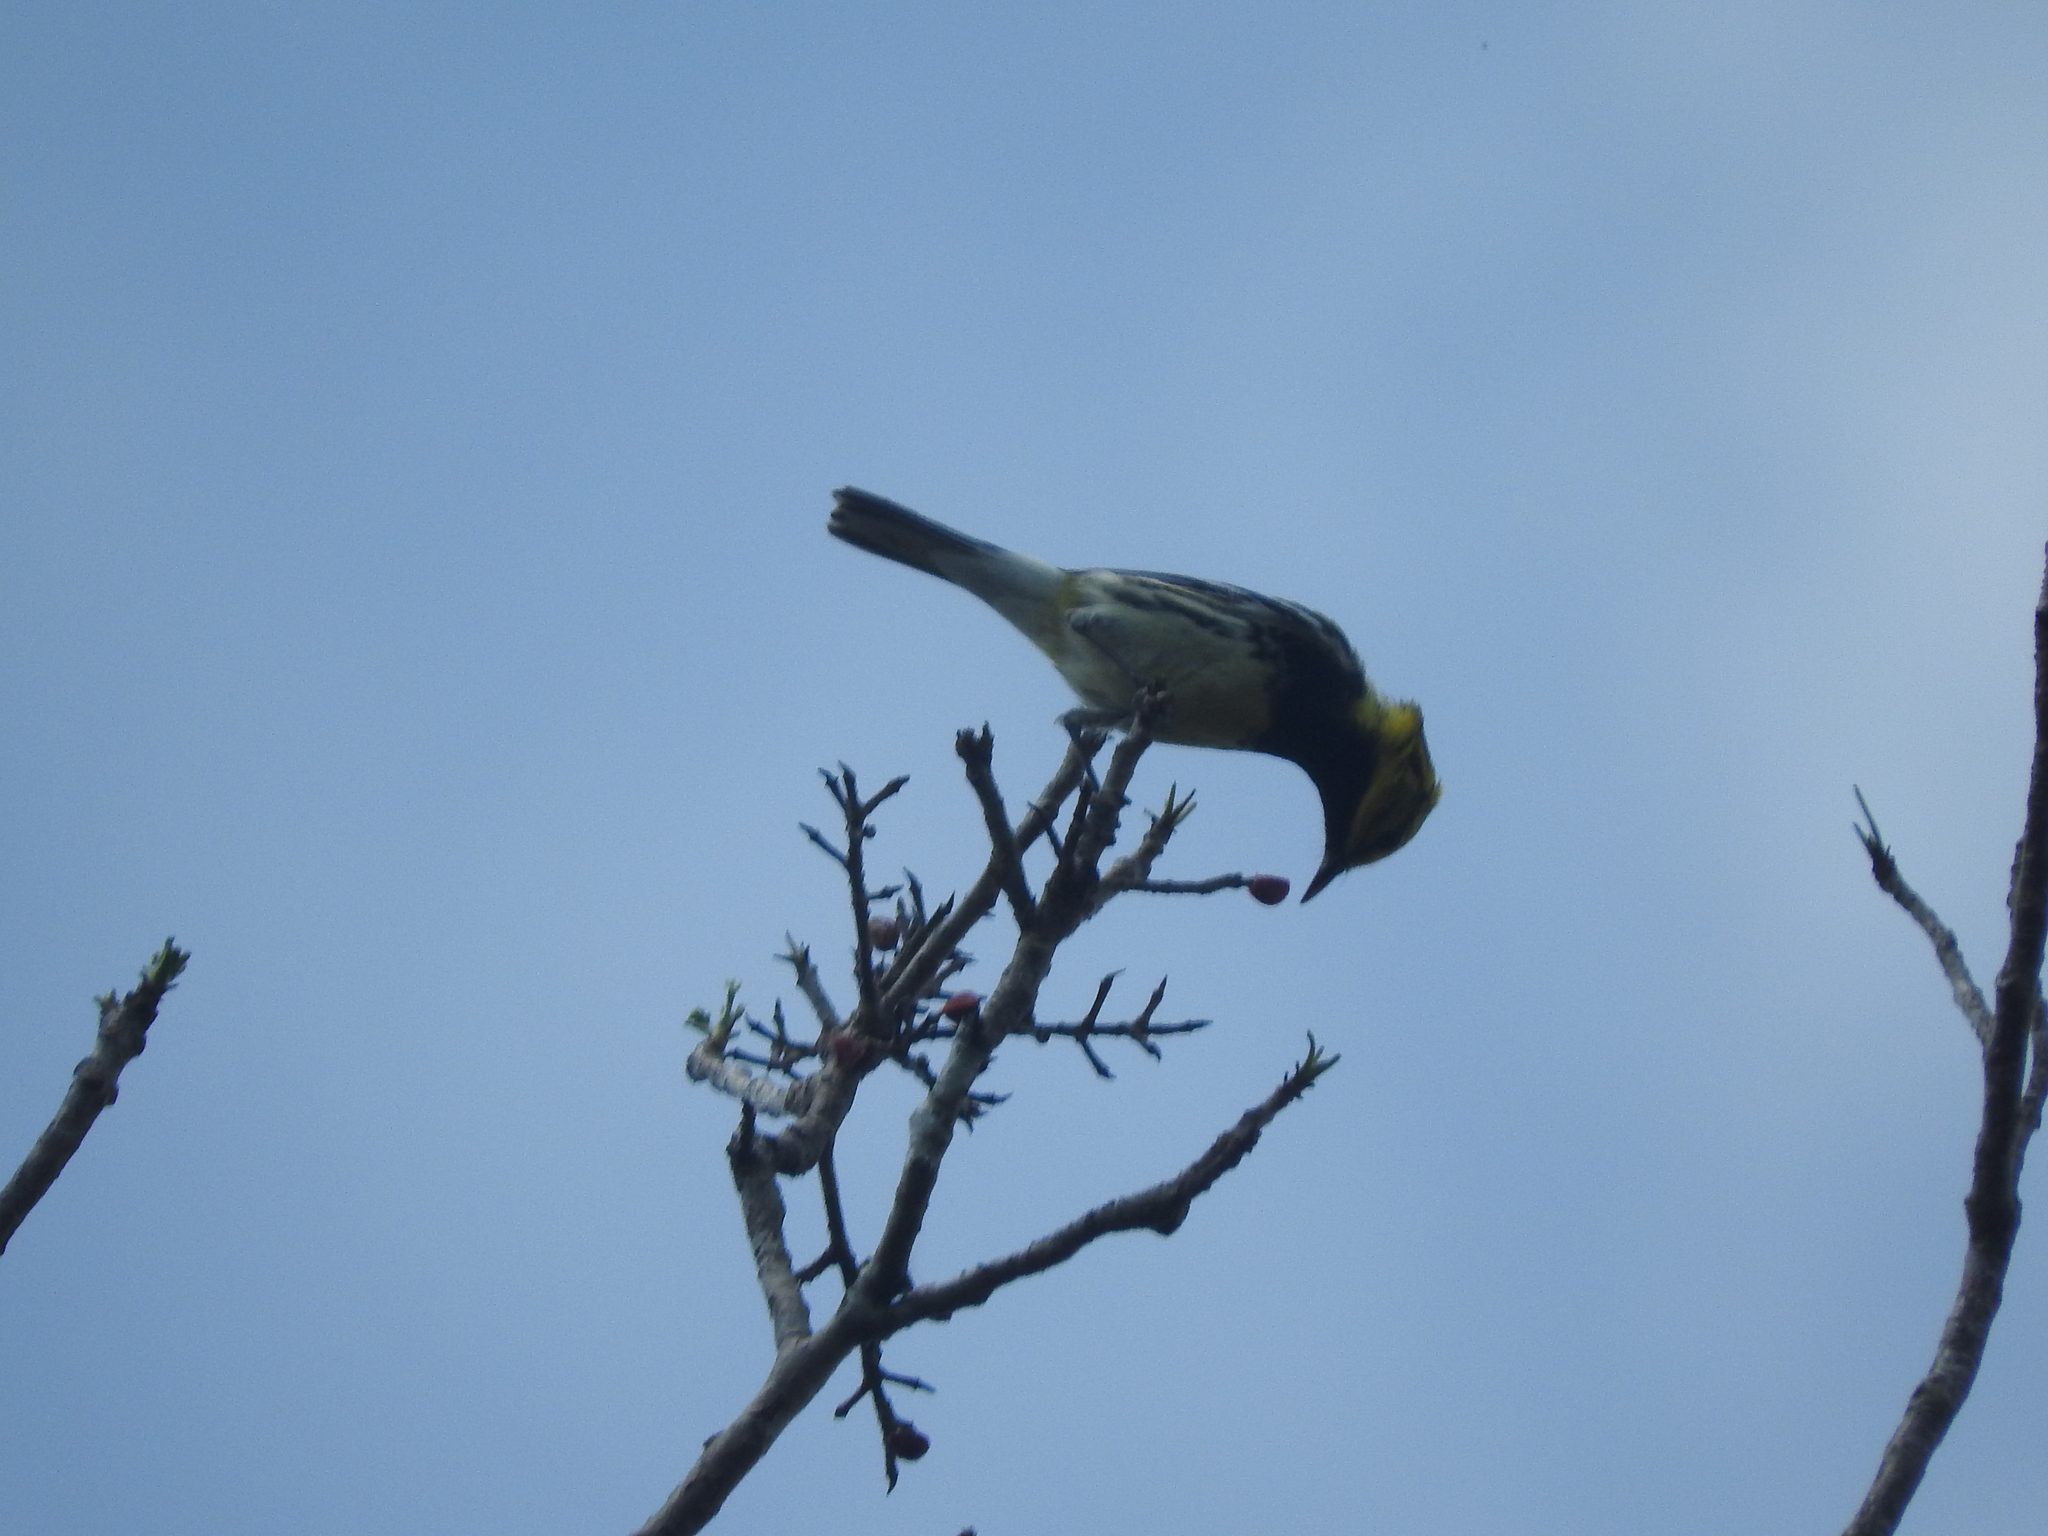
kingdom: Animalia
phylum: Chordata
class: Aves
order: Passeriformes
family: Parulidae
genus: Setophaga
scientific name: Setophaga virens
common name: Black-throated green warbler
